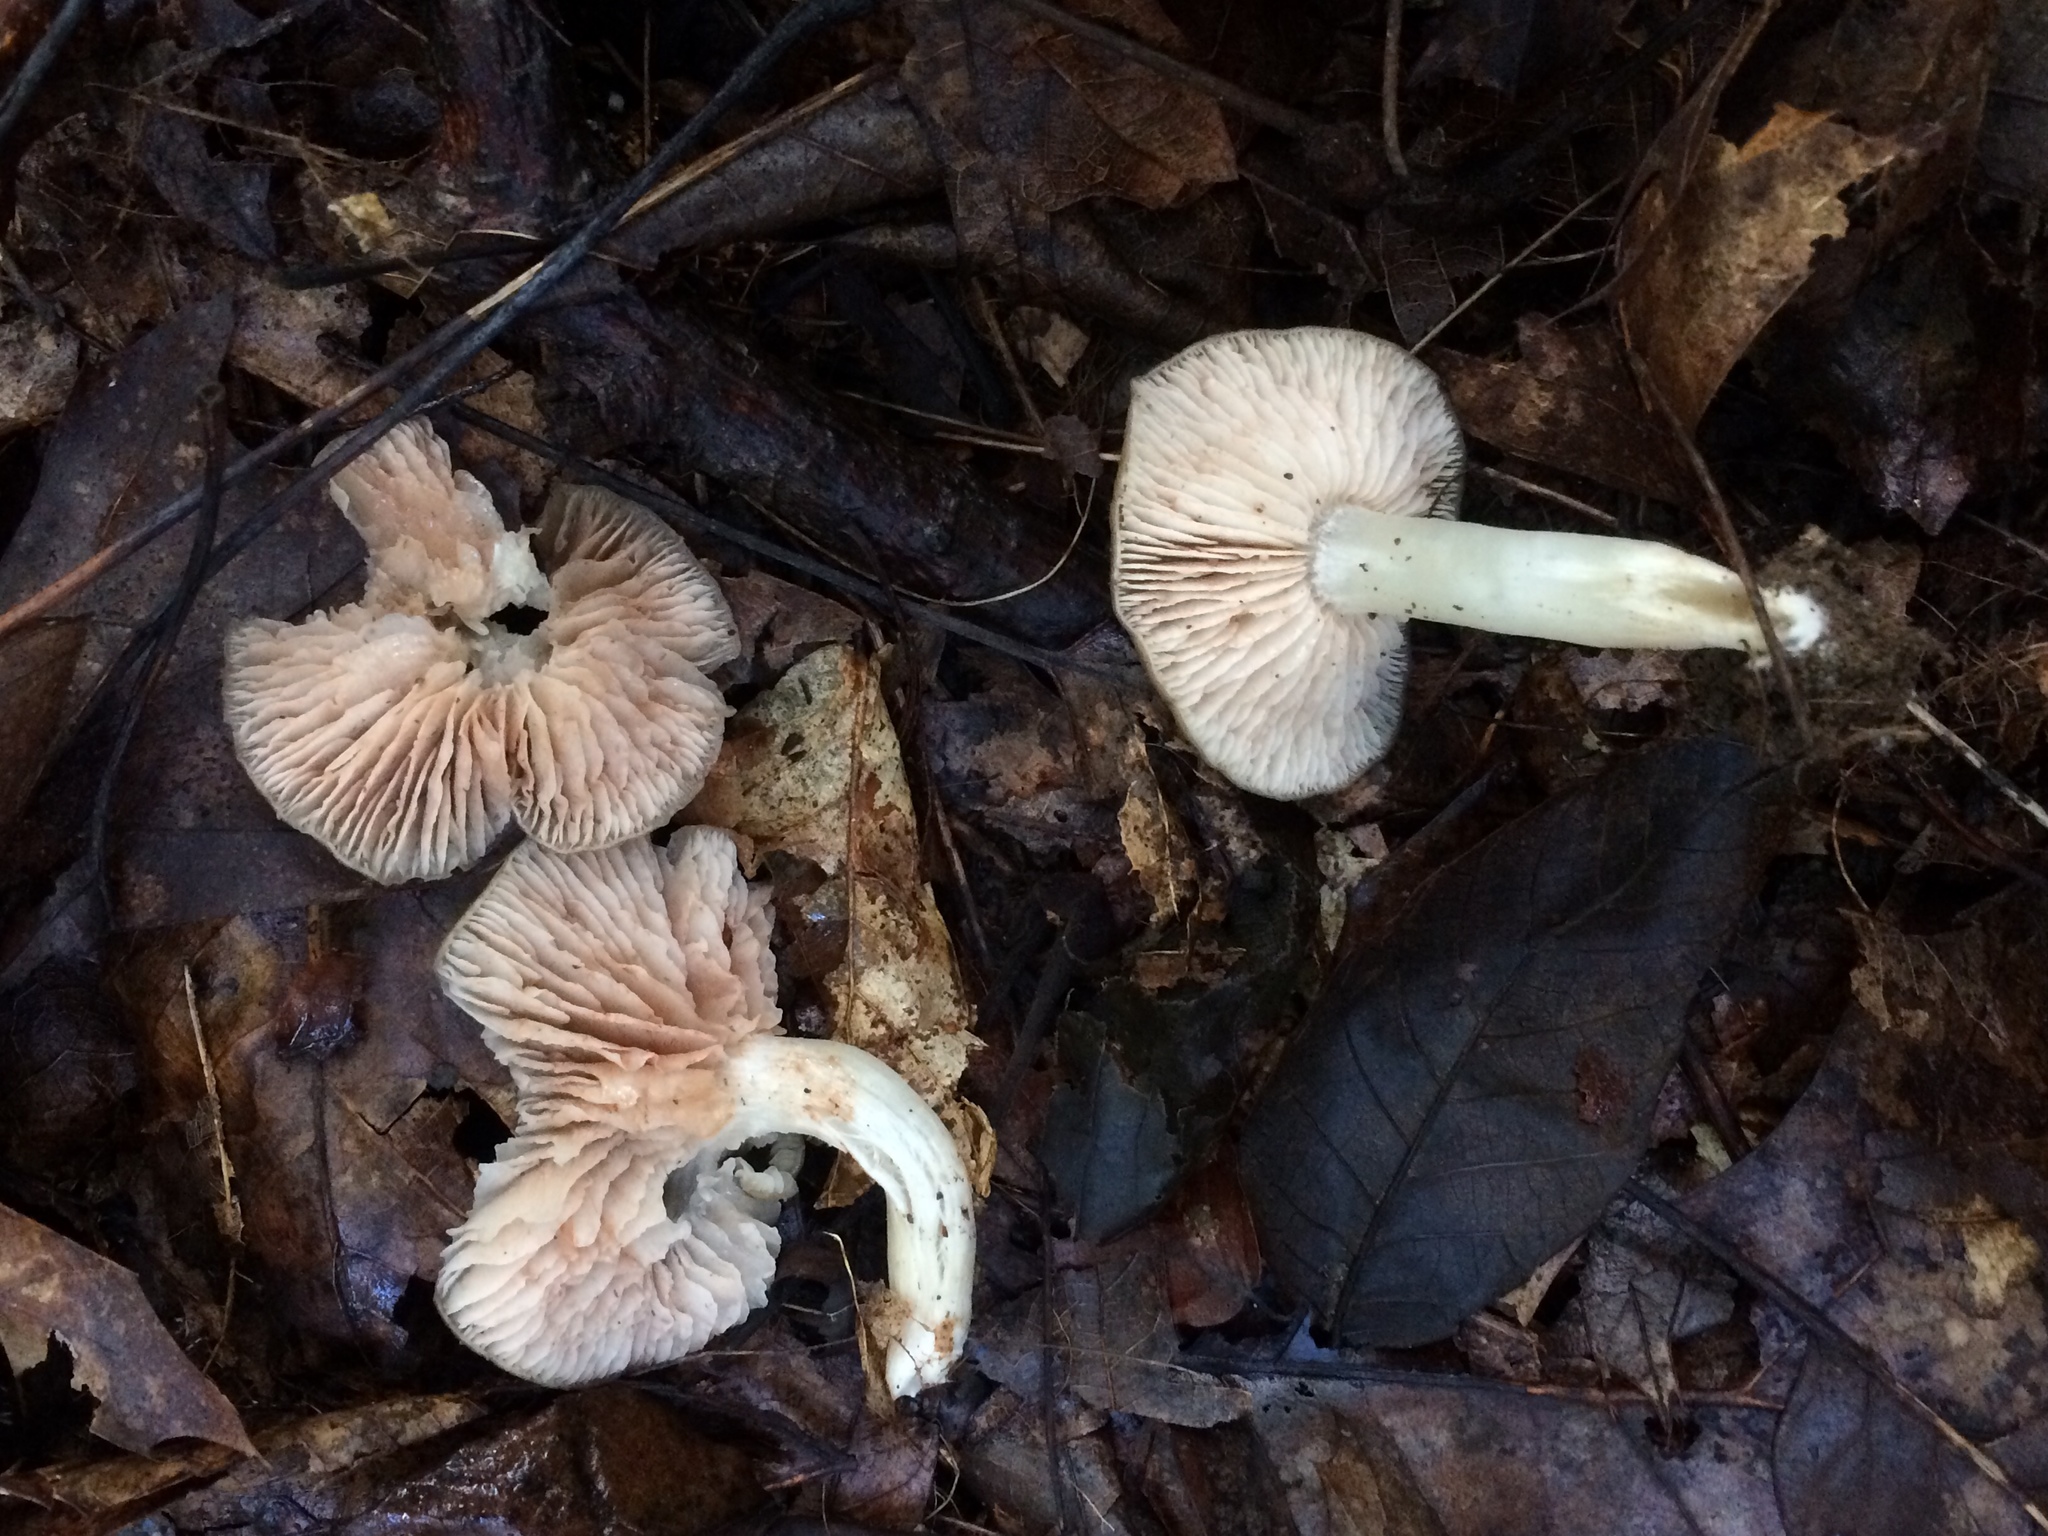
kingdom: Fungi
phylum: Basidiomycota
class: Agaricomycetes
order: Agaricales
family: Entolomataceae
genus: Entoloma
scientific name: Entoloma griseum
